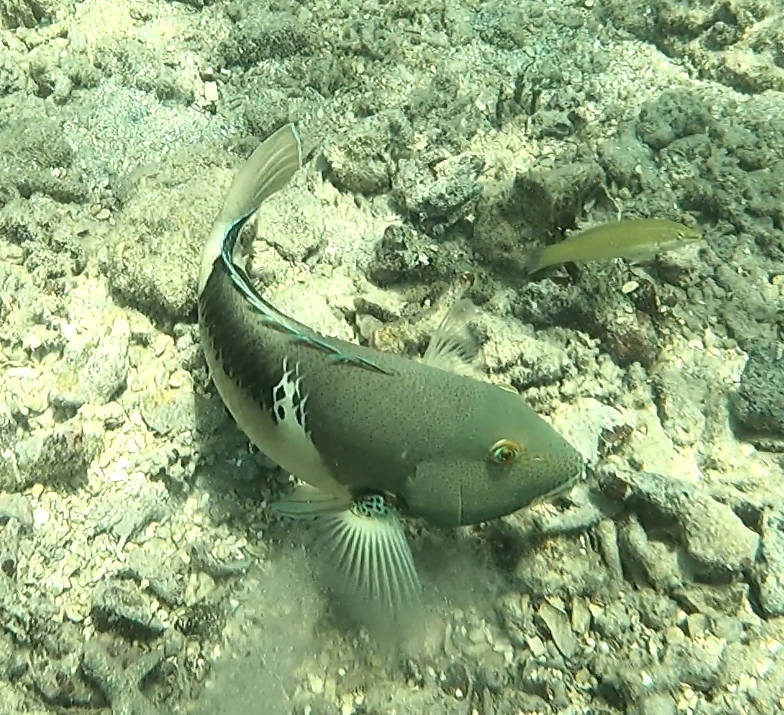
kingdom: Animalia
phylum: Chordata
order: Perciformes
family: Labridae
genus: Choerodon
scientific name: Choerodon anchorago
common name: Anchor tuskfish
